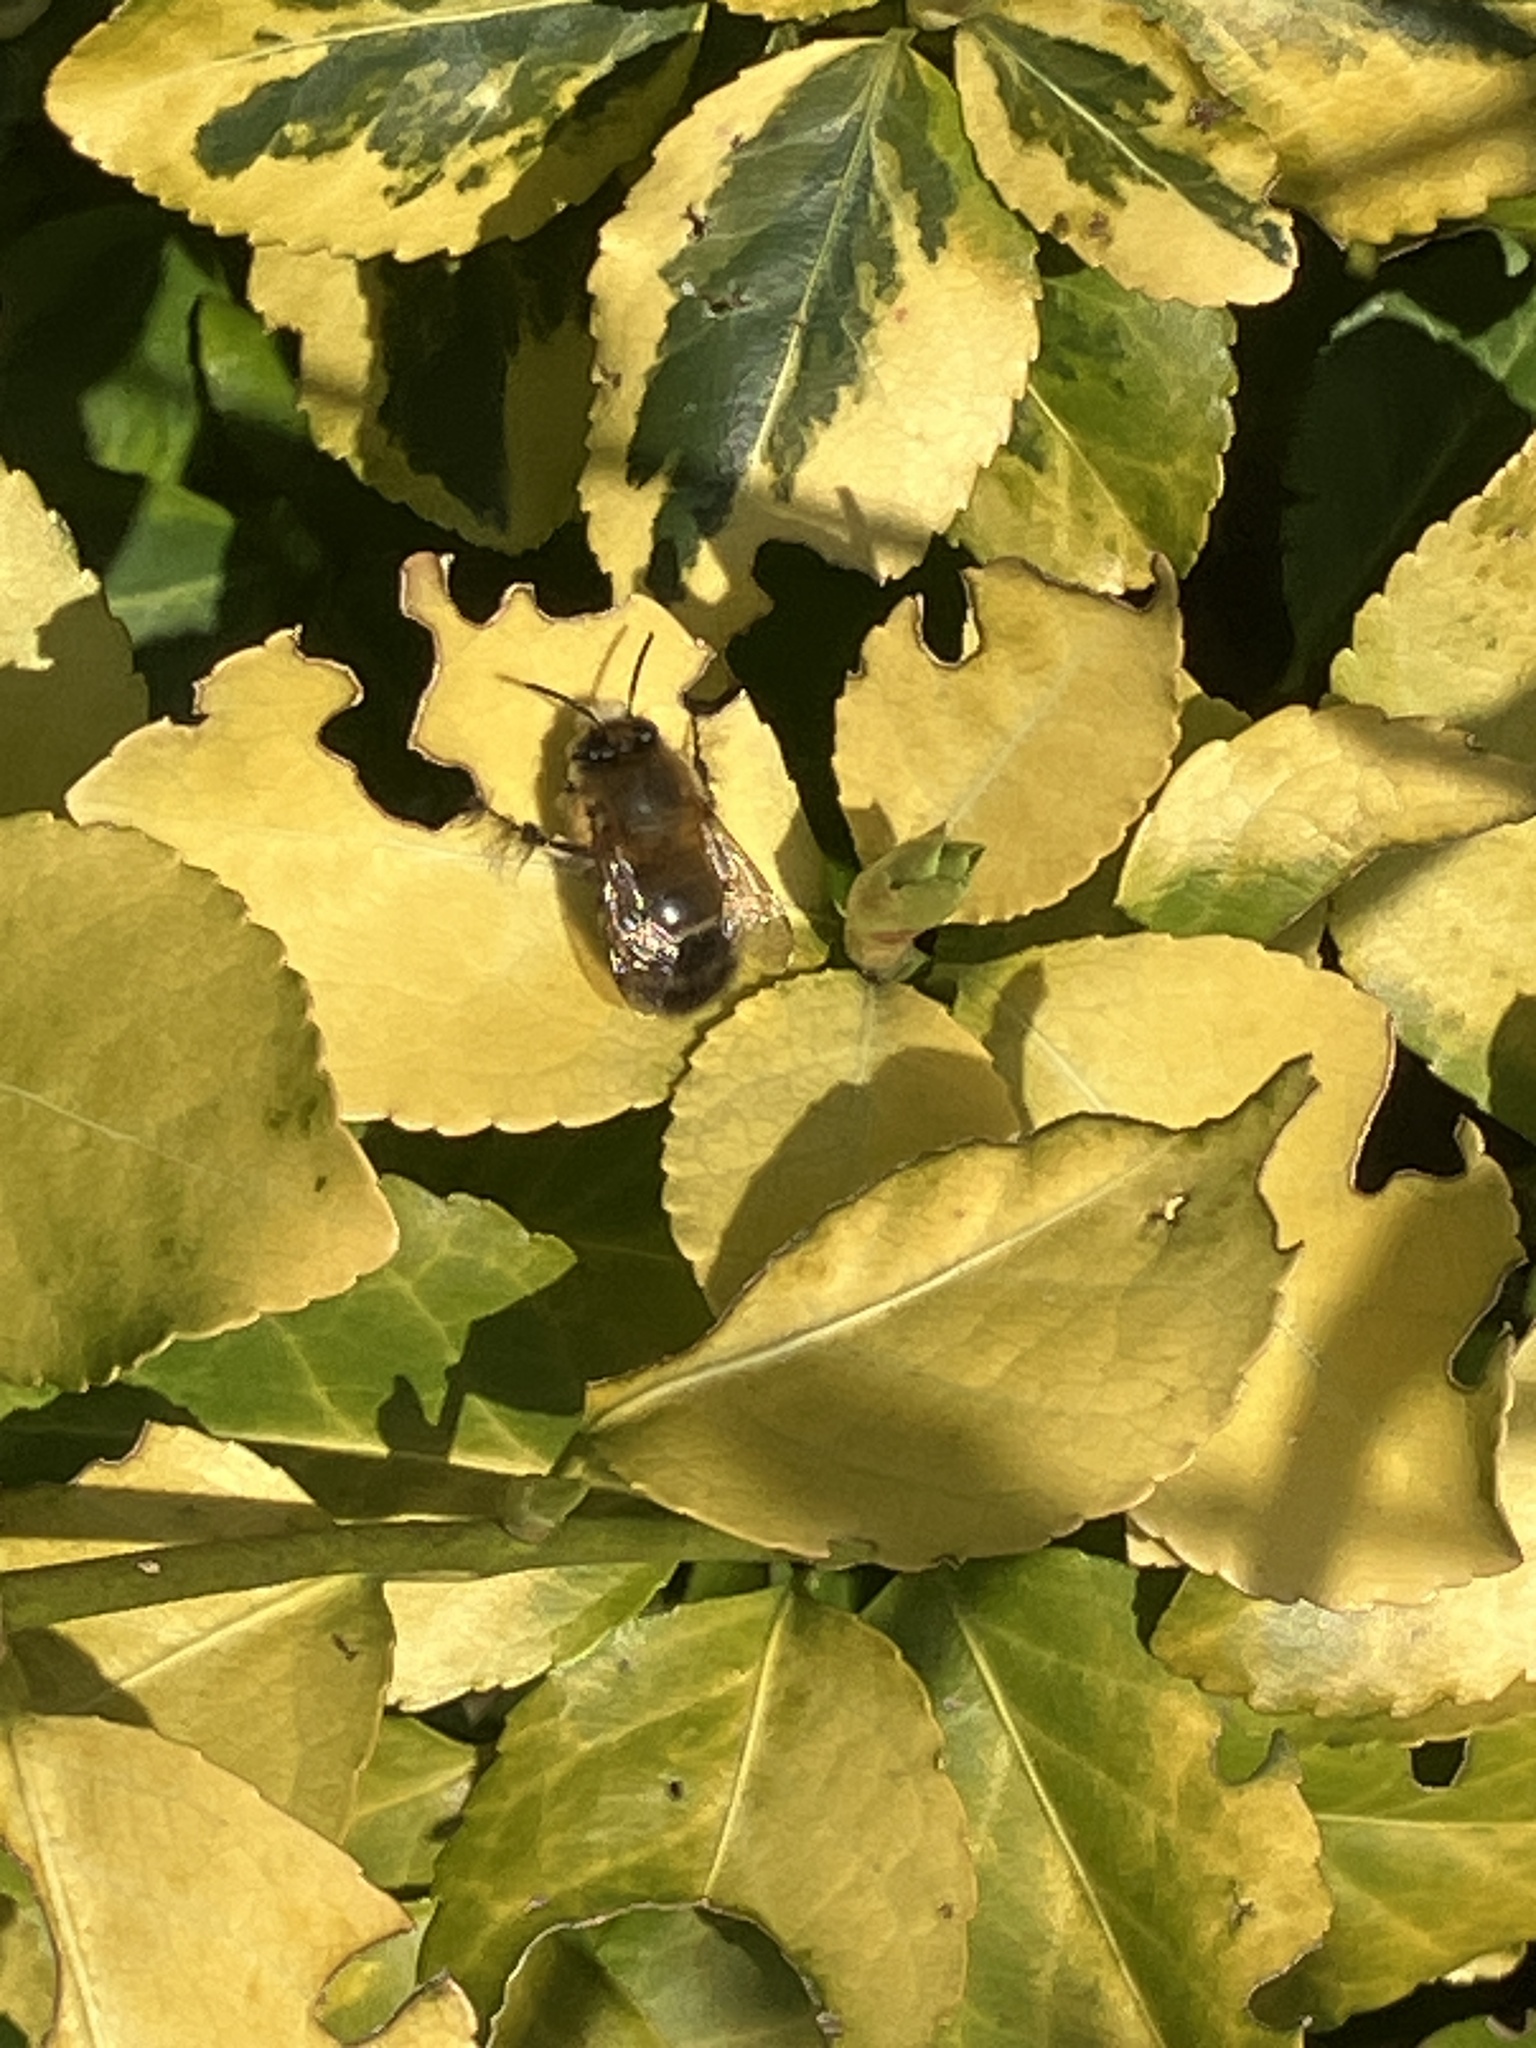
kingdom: Animalia
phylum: Arthropoda
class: Insecta
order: Hymenoptera
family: Apidae
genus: Anthophora
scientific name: Anthophora plumipes
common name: Hairy-footed flower bee
